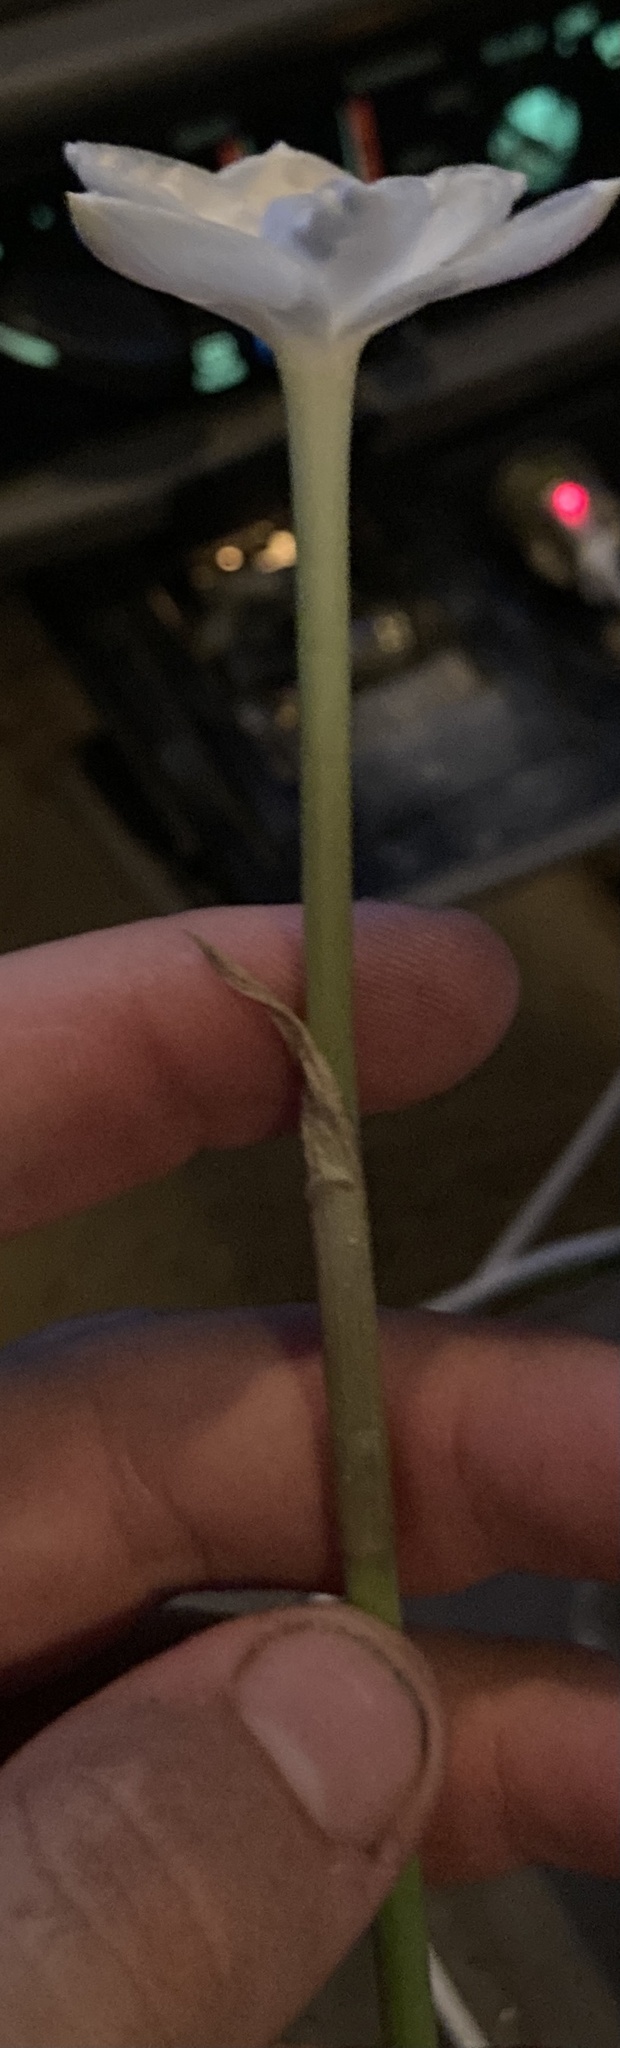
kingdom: Plantae
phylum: Tracheophyta
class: Liliopsida
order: Asparagales
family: Amaryllidaceae
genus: Zephyranthes
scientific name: Zephyranthes chlorosolen
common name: Evening rain-lily
